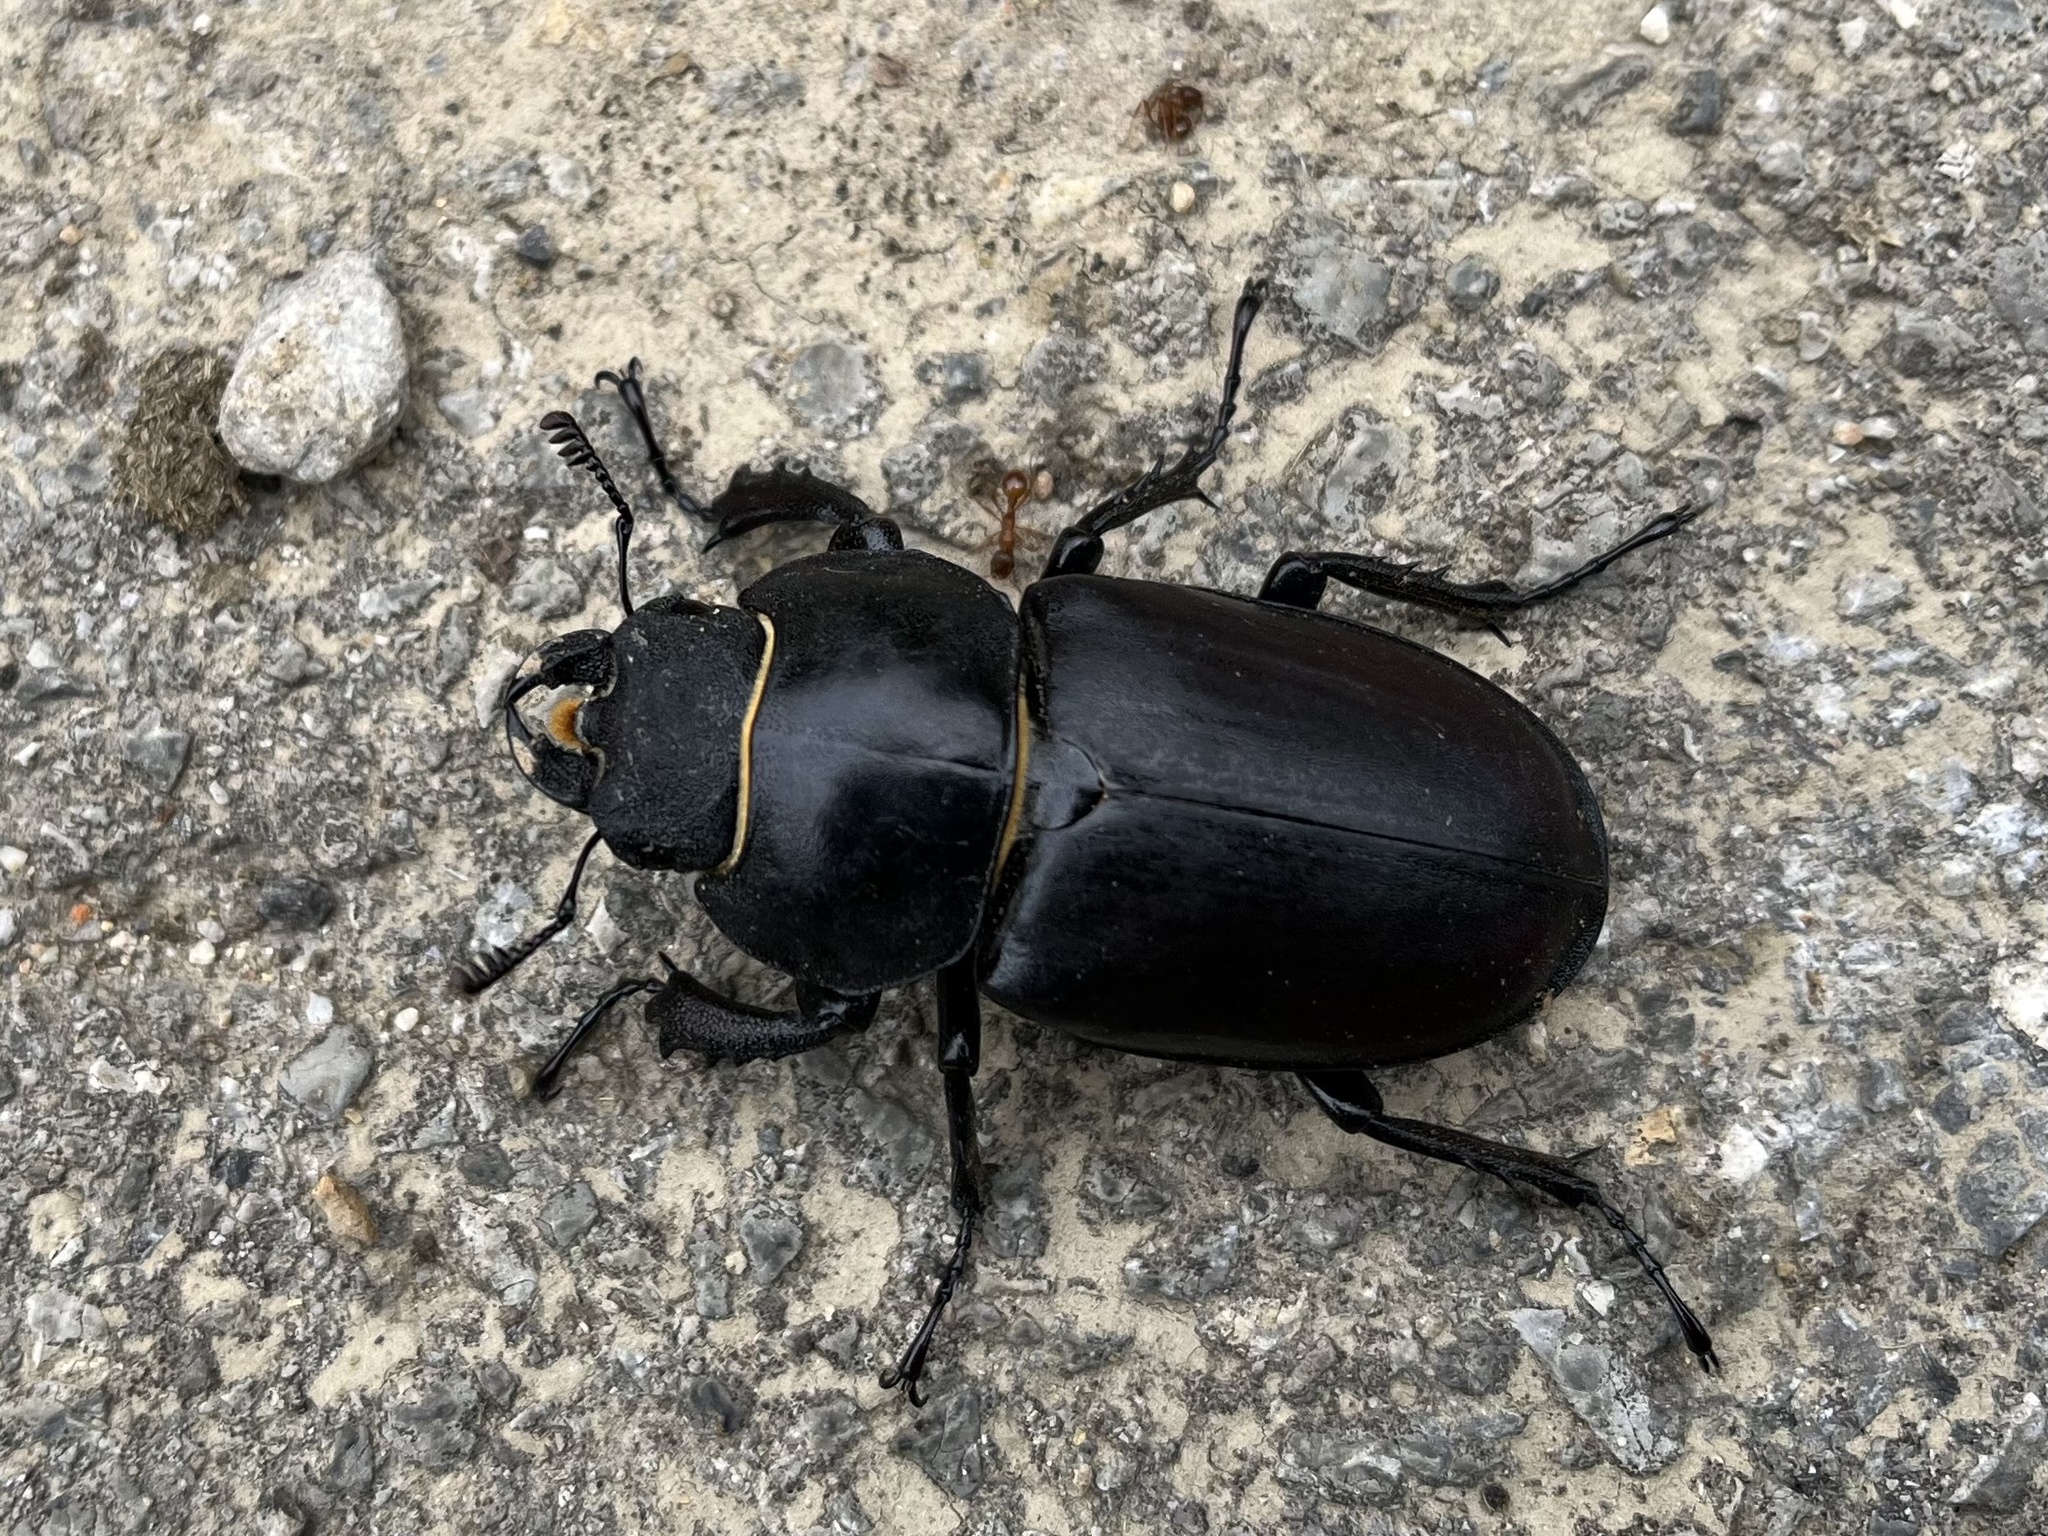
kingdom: Animalia
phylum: Arthropoda
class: Insecta
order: Coleoptera
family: Lucanidae
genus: Lucanus
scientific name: Lucanus cervus
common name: Stag beetle
